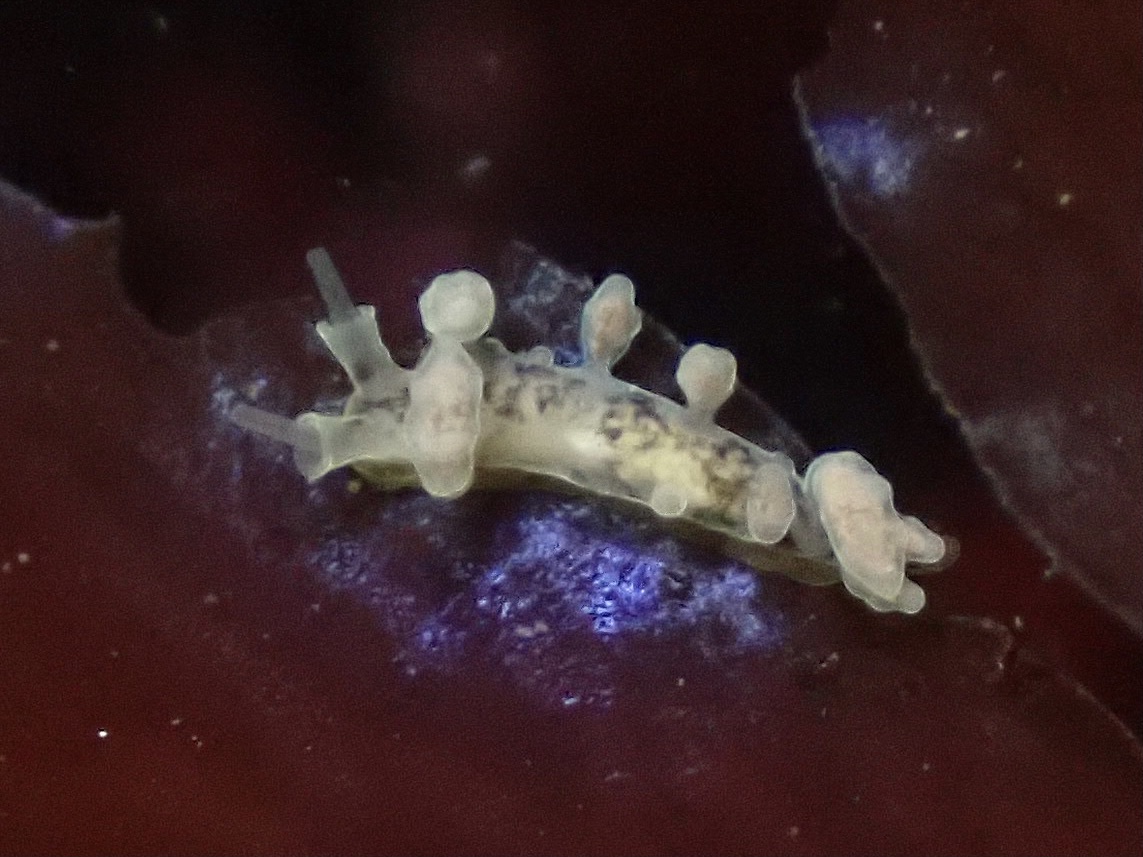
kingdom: Animalia
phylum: Mollusca
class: Gastropoda
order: Nudibranchia
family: Dotidae
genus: Doto
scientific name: Doto columbiana
